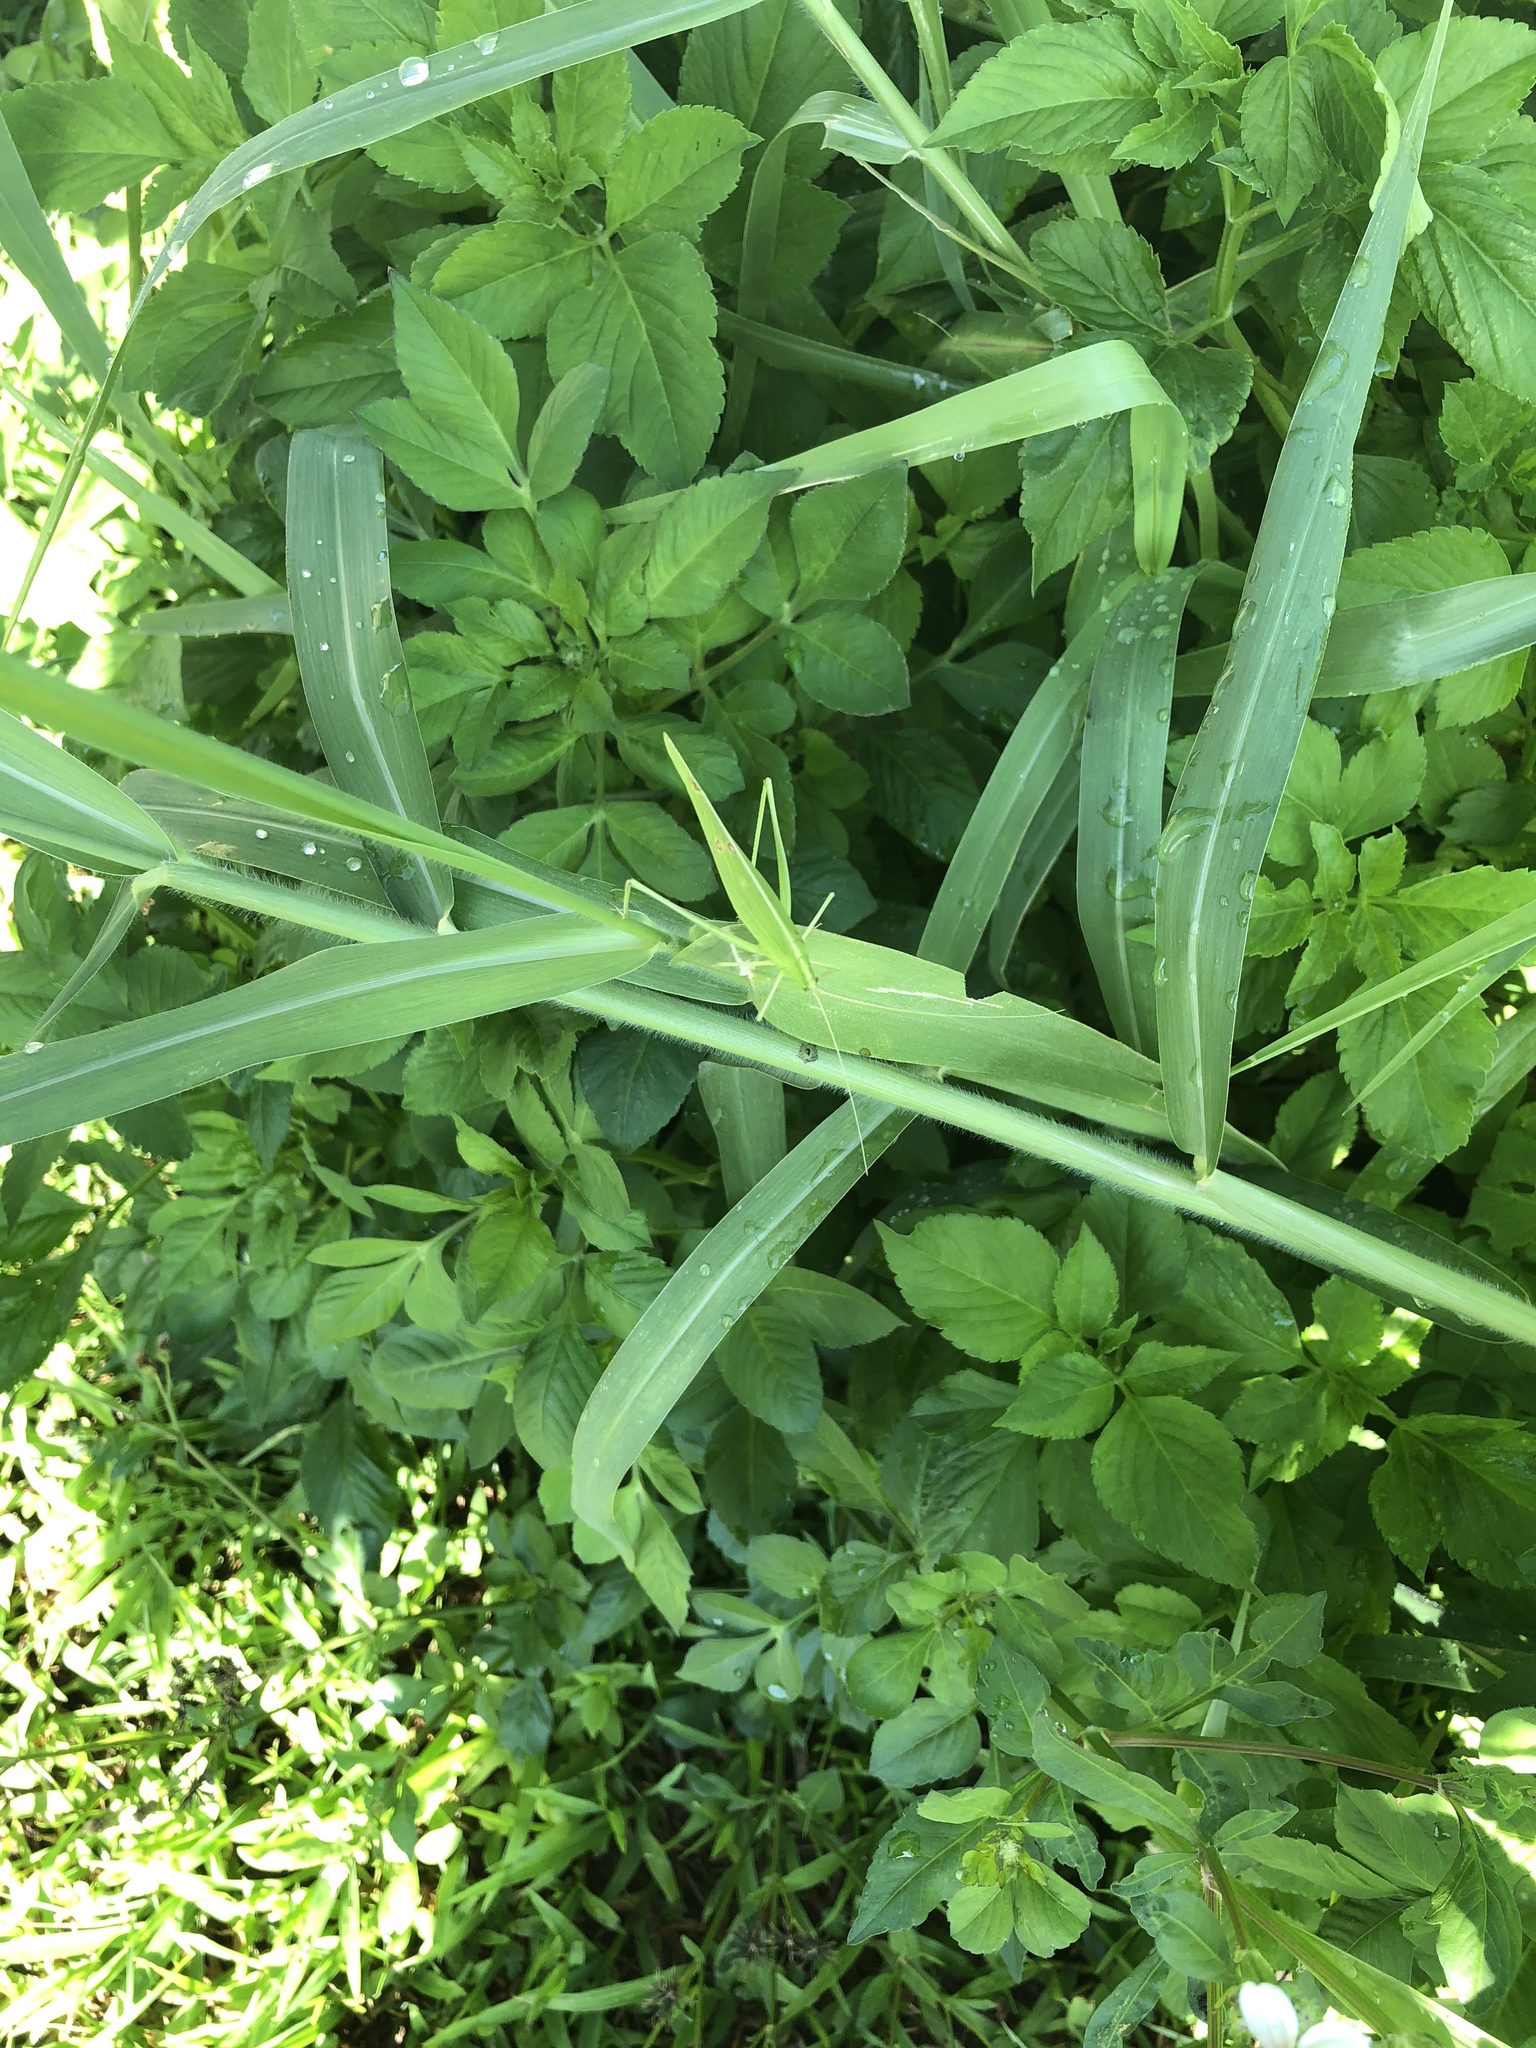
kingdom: Animalia
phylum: Arthropoda
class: Insecta
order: Orthoptera
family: Tettigoniidae
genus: Ducetia
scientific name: Ducetia japonica
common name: Pacific ducetia
